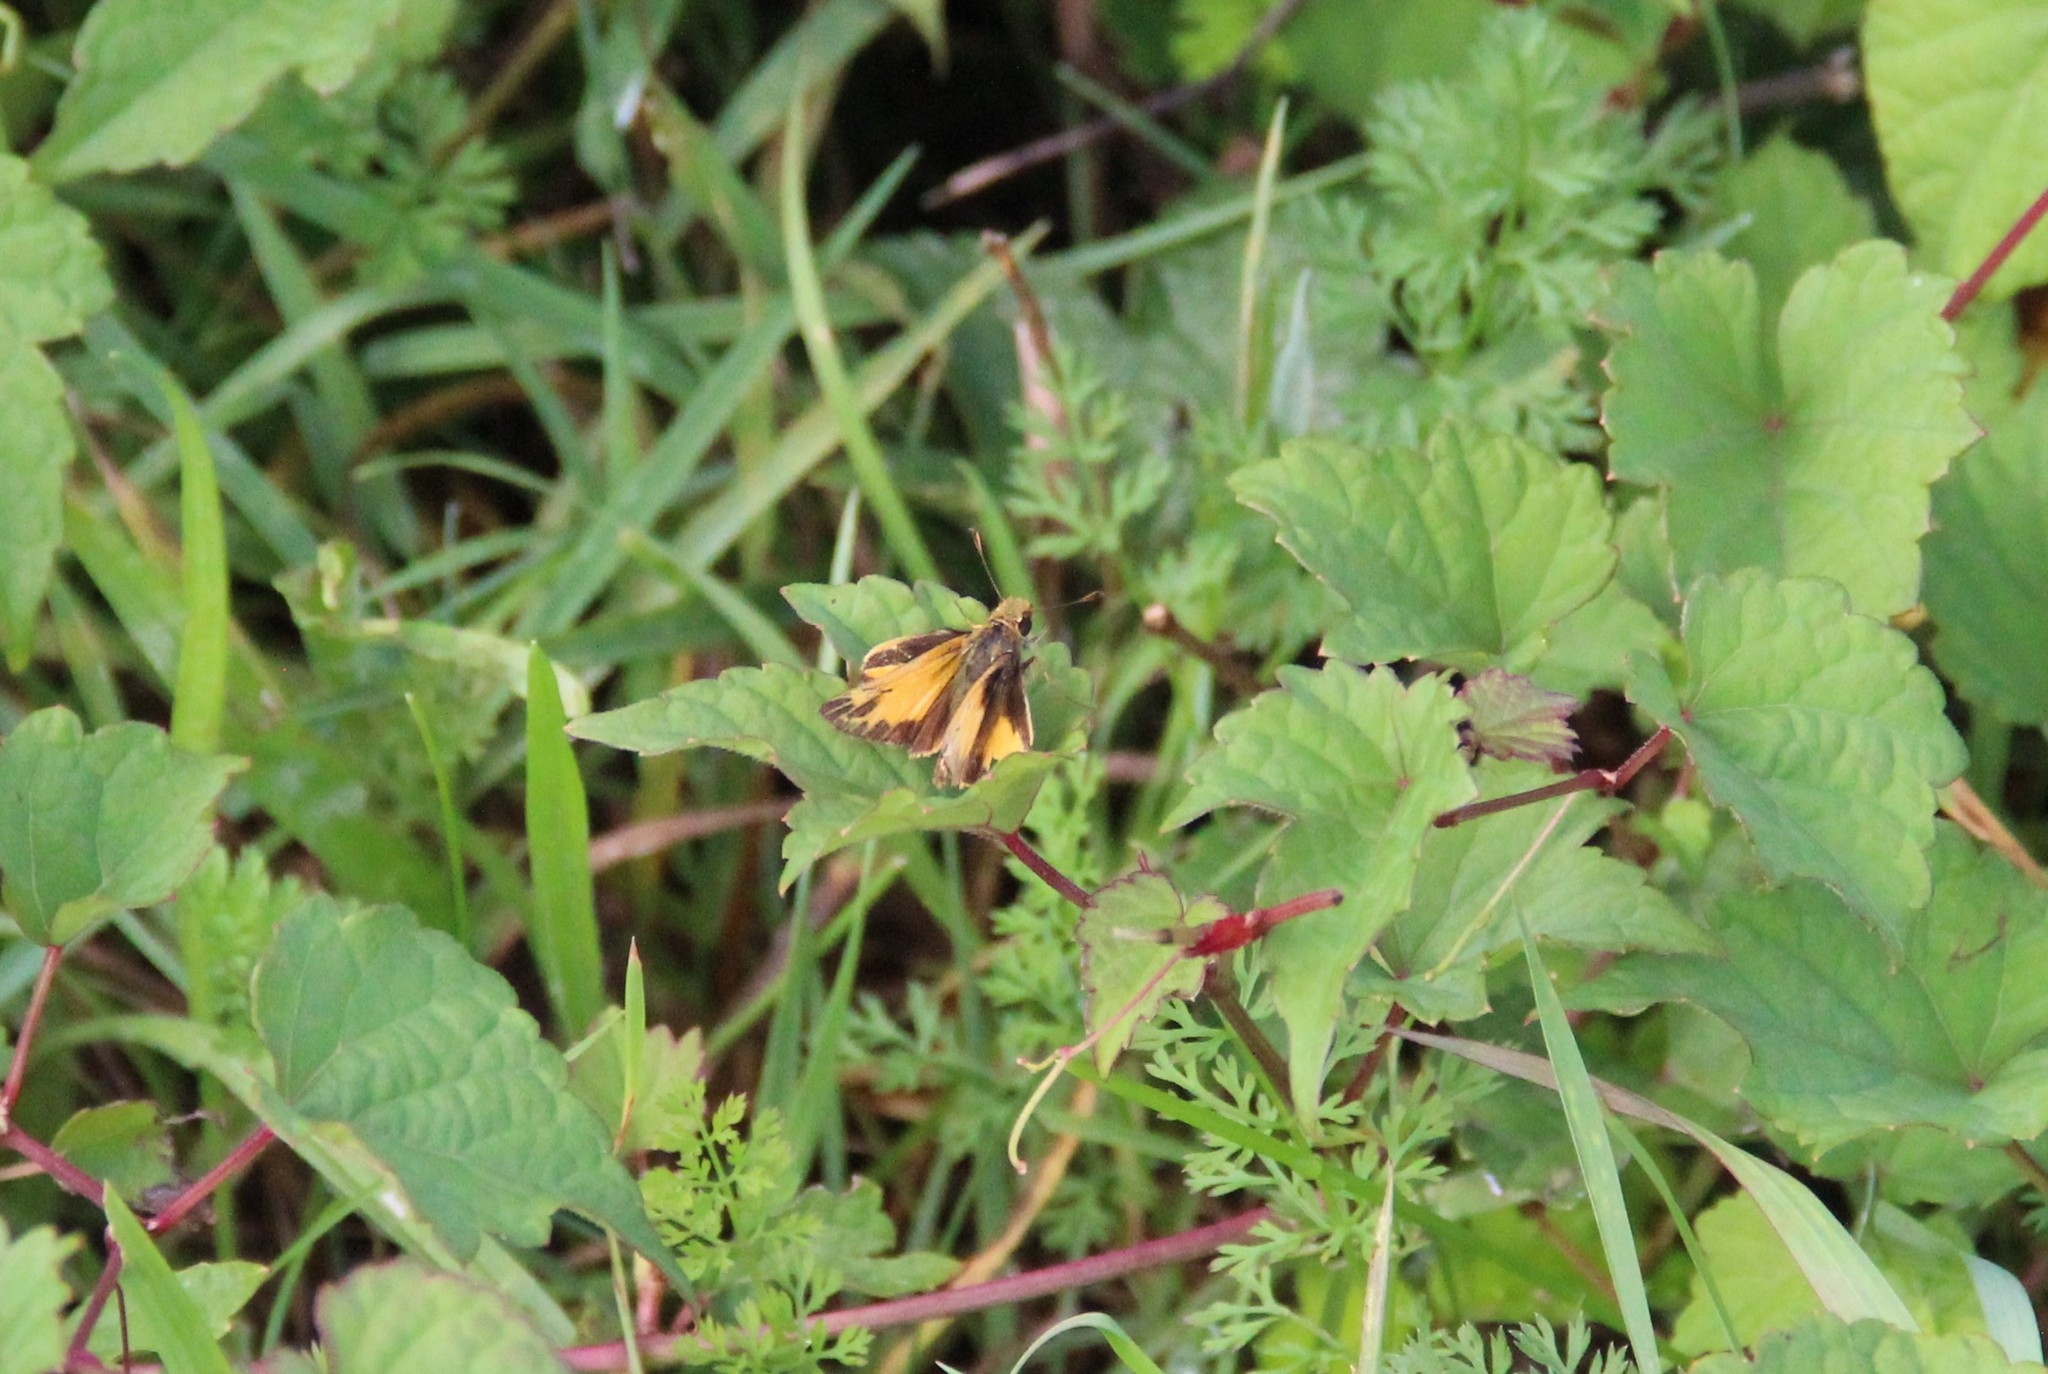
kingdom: Animalia
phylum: Arthropoda
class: Insecta
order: Lepidoptera
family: Hesperiidae
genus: Lon
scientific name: Lon zabulon
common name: Zabulon skipper
